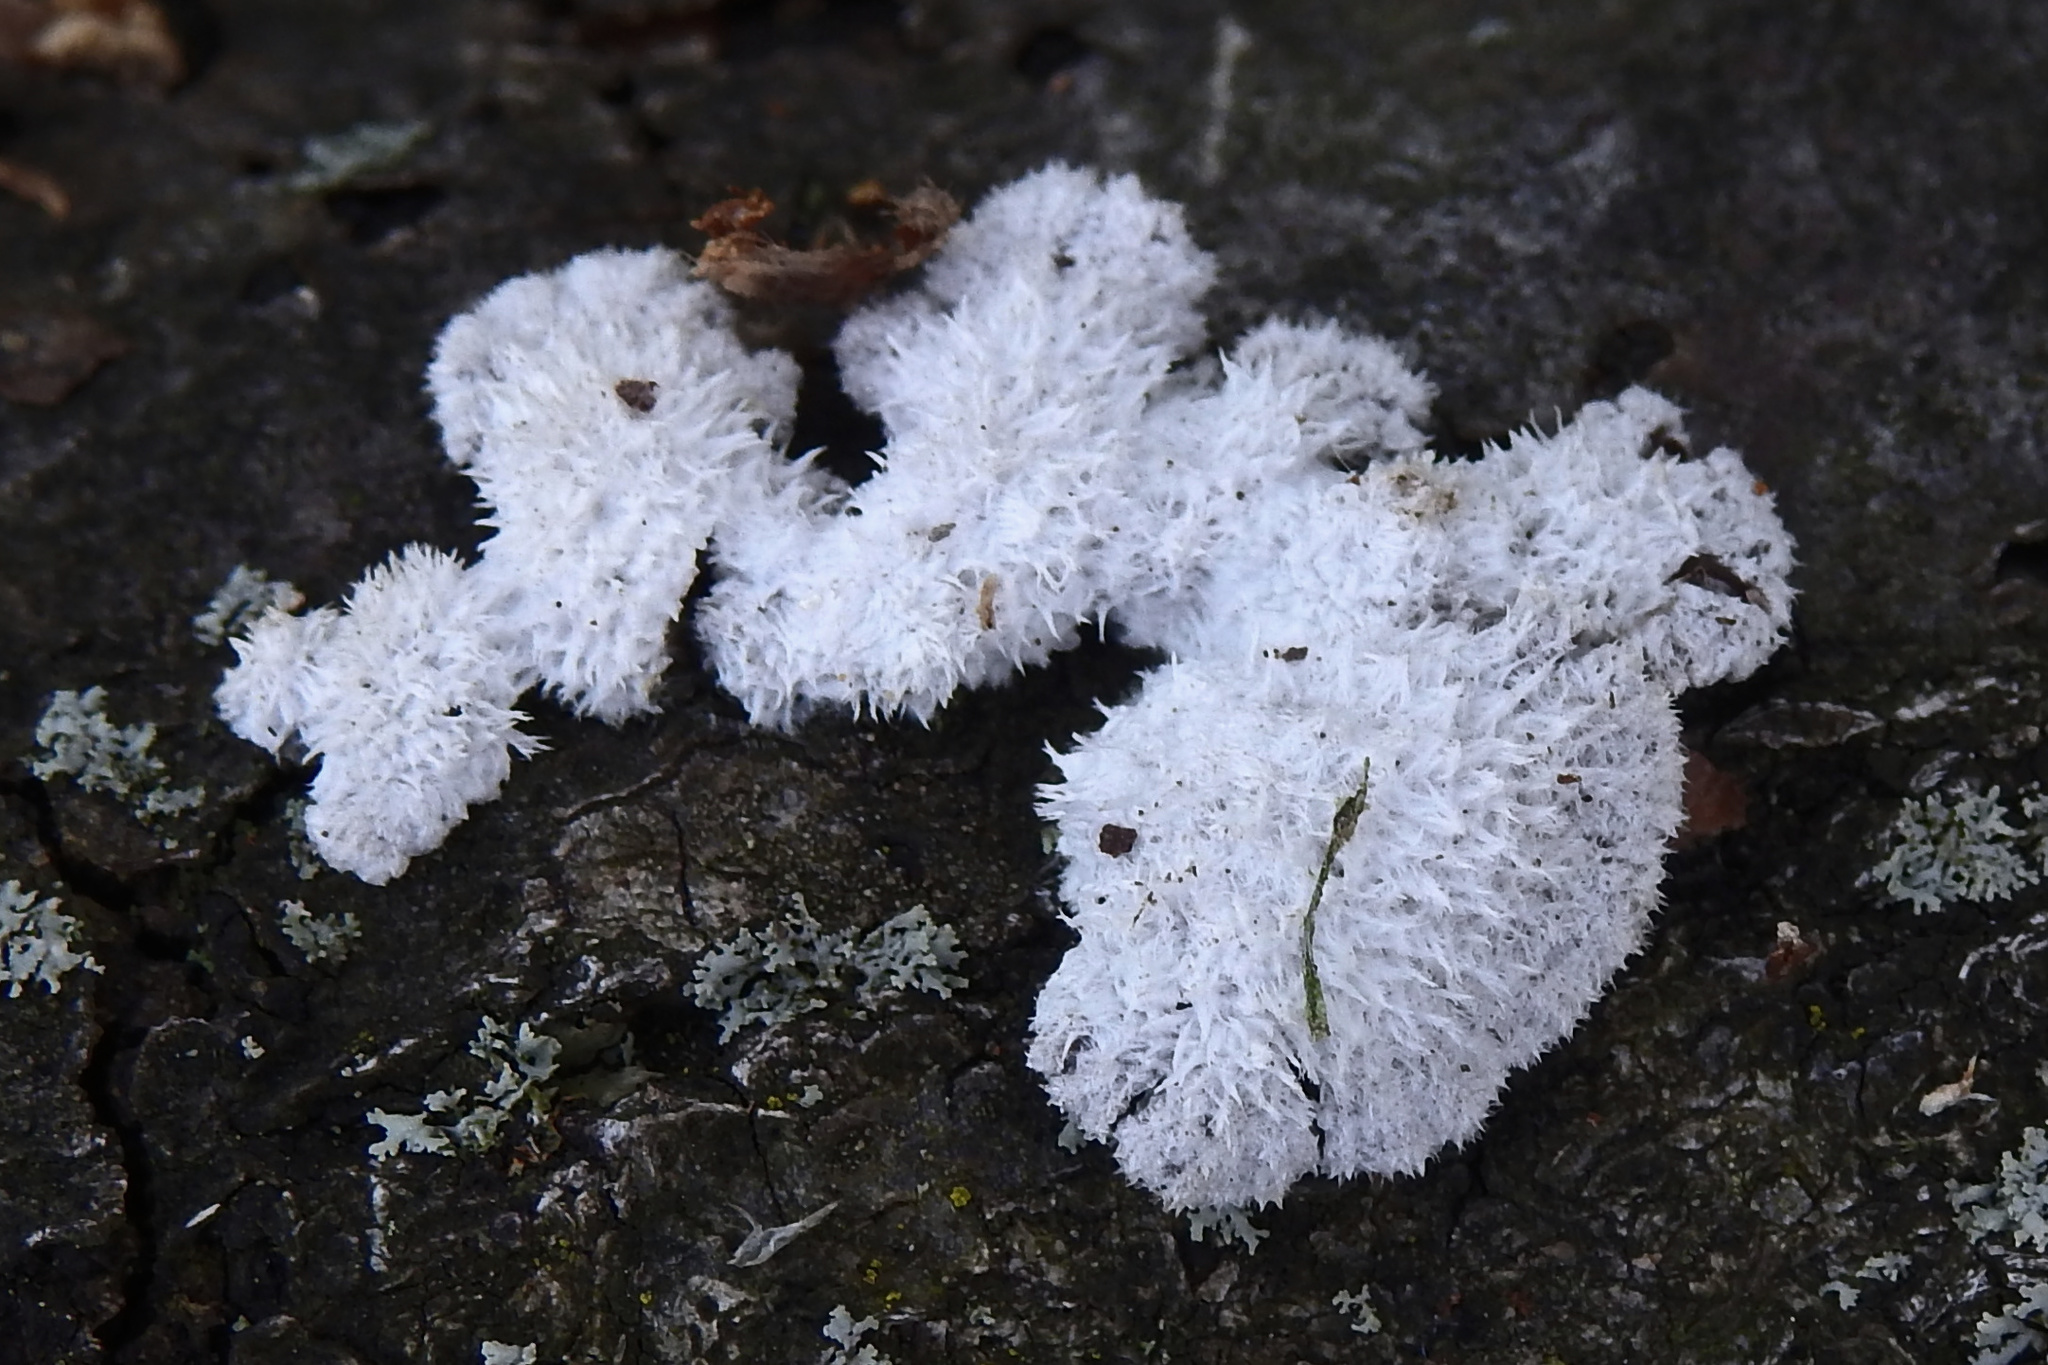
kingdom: Fungi
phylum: Basidiomycota
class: Agaricomycetes
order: Agaricales
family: Schizophyllaceae
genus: Schizophyllum
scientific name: Schizophyllum commune
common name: Common porecrust
